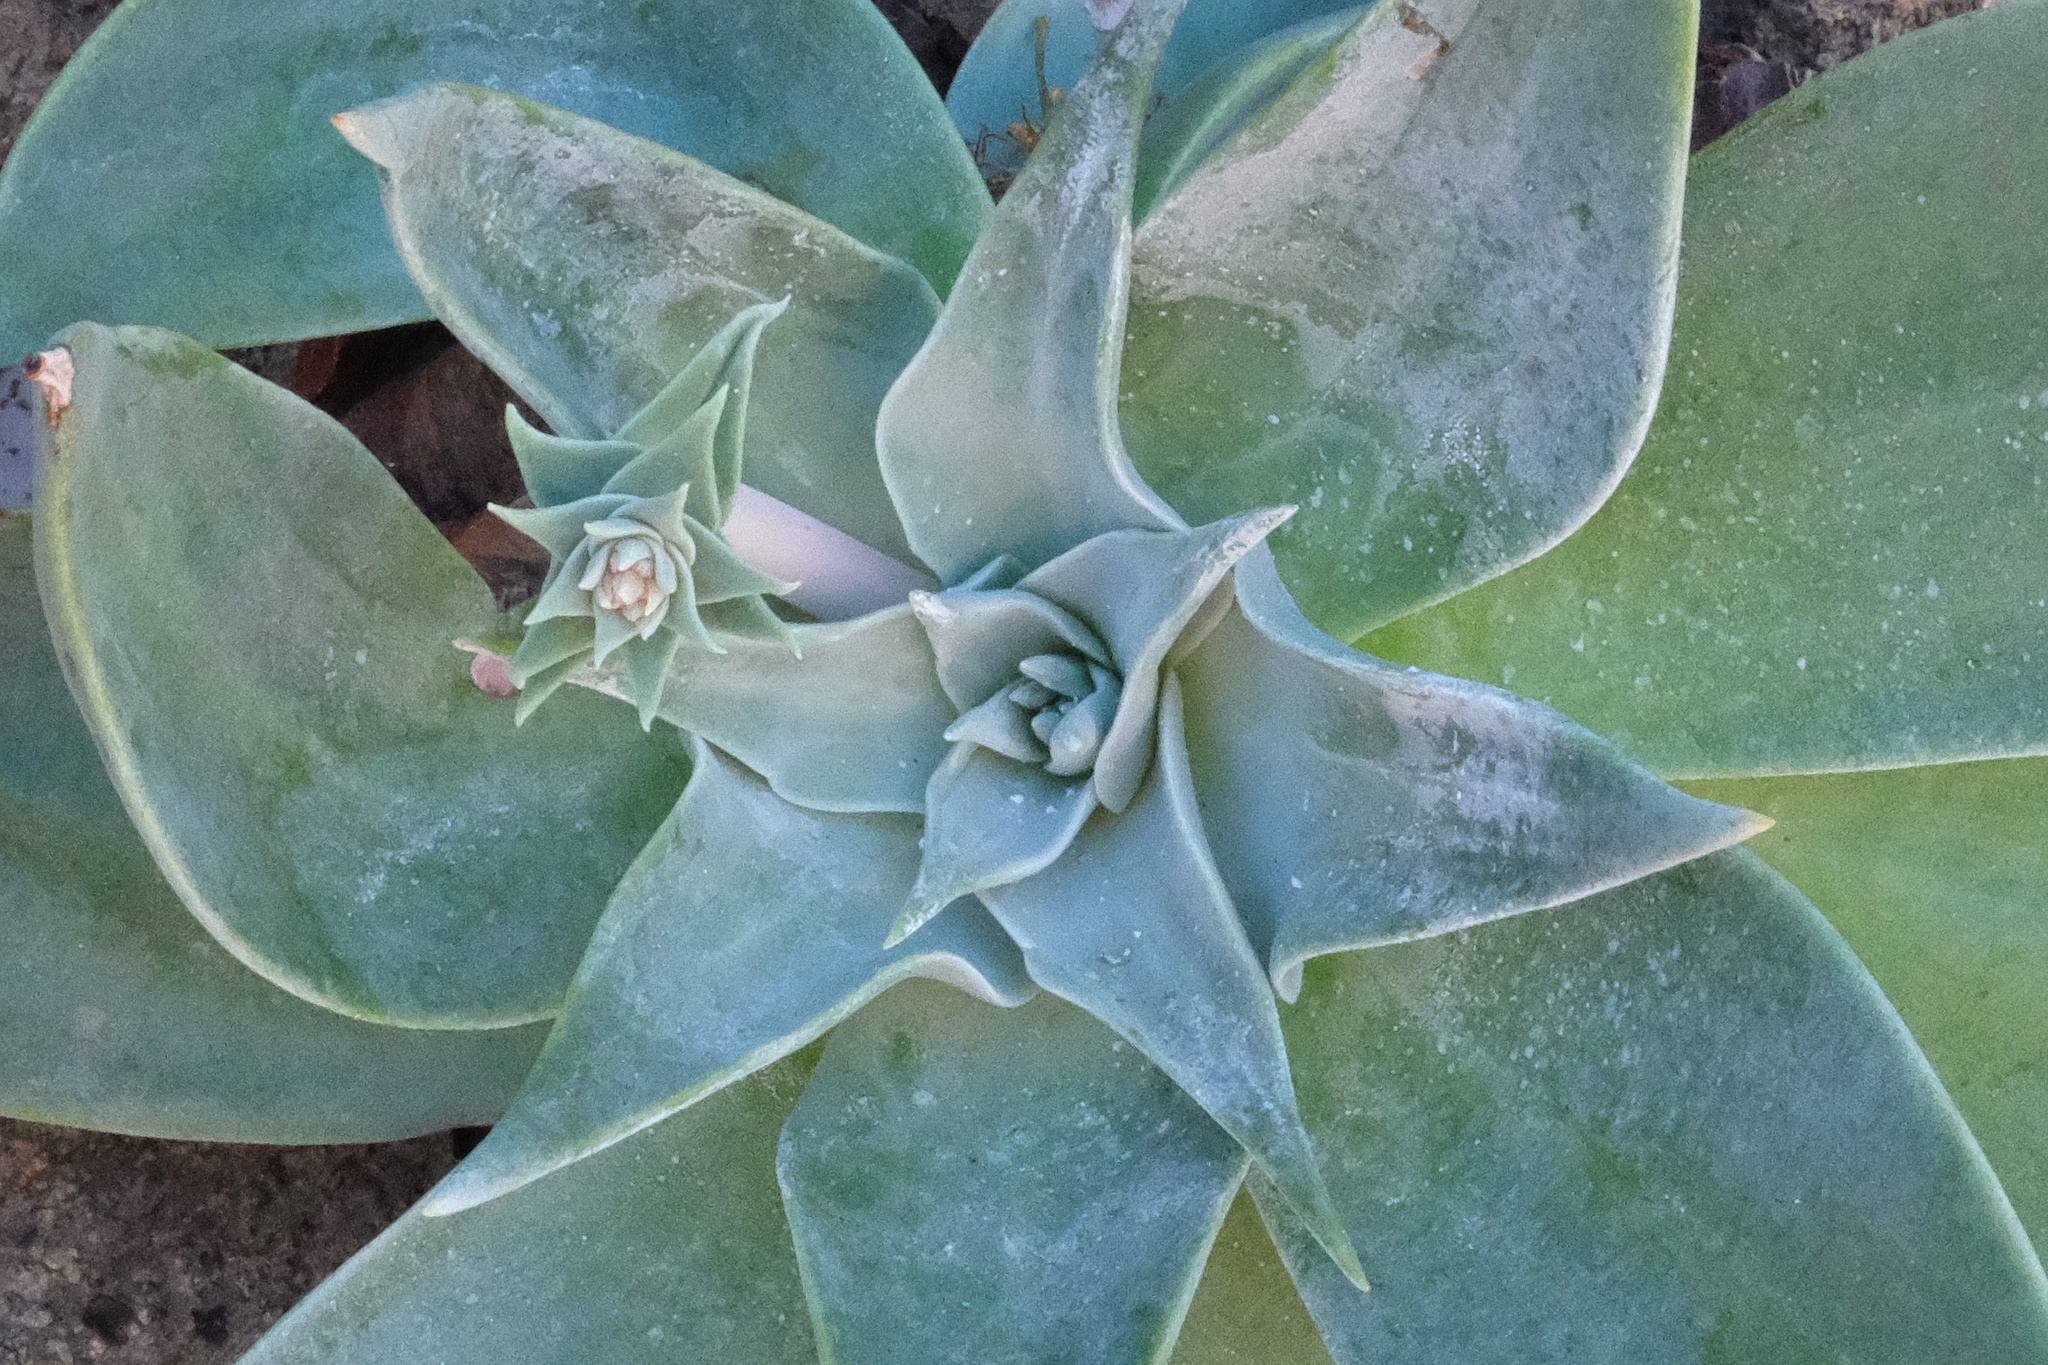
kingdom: Plantae
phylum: Tracheophyta
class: Magnoliopsida
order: Saxifragales
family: Crassulaceae
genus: Dudleya
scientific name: Dudleya arizonica
